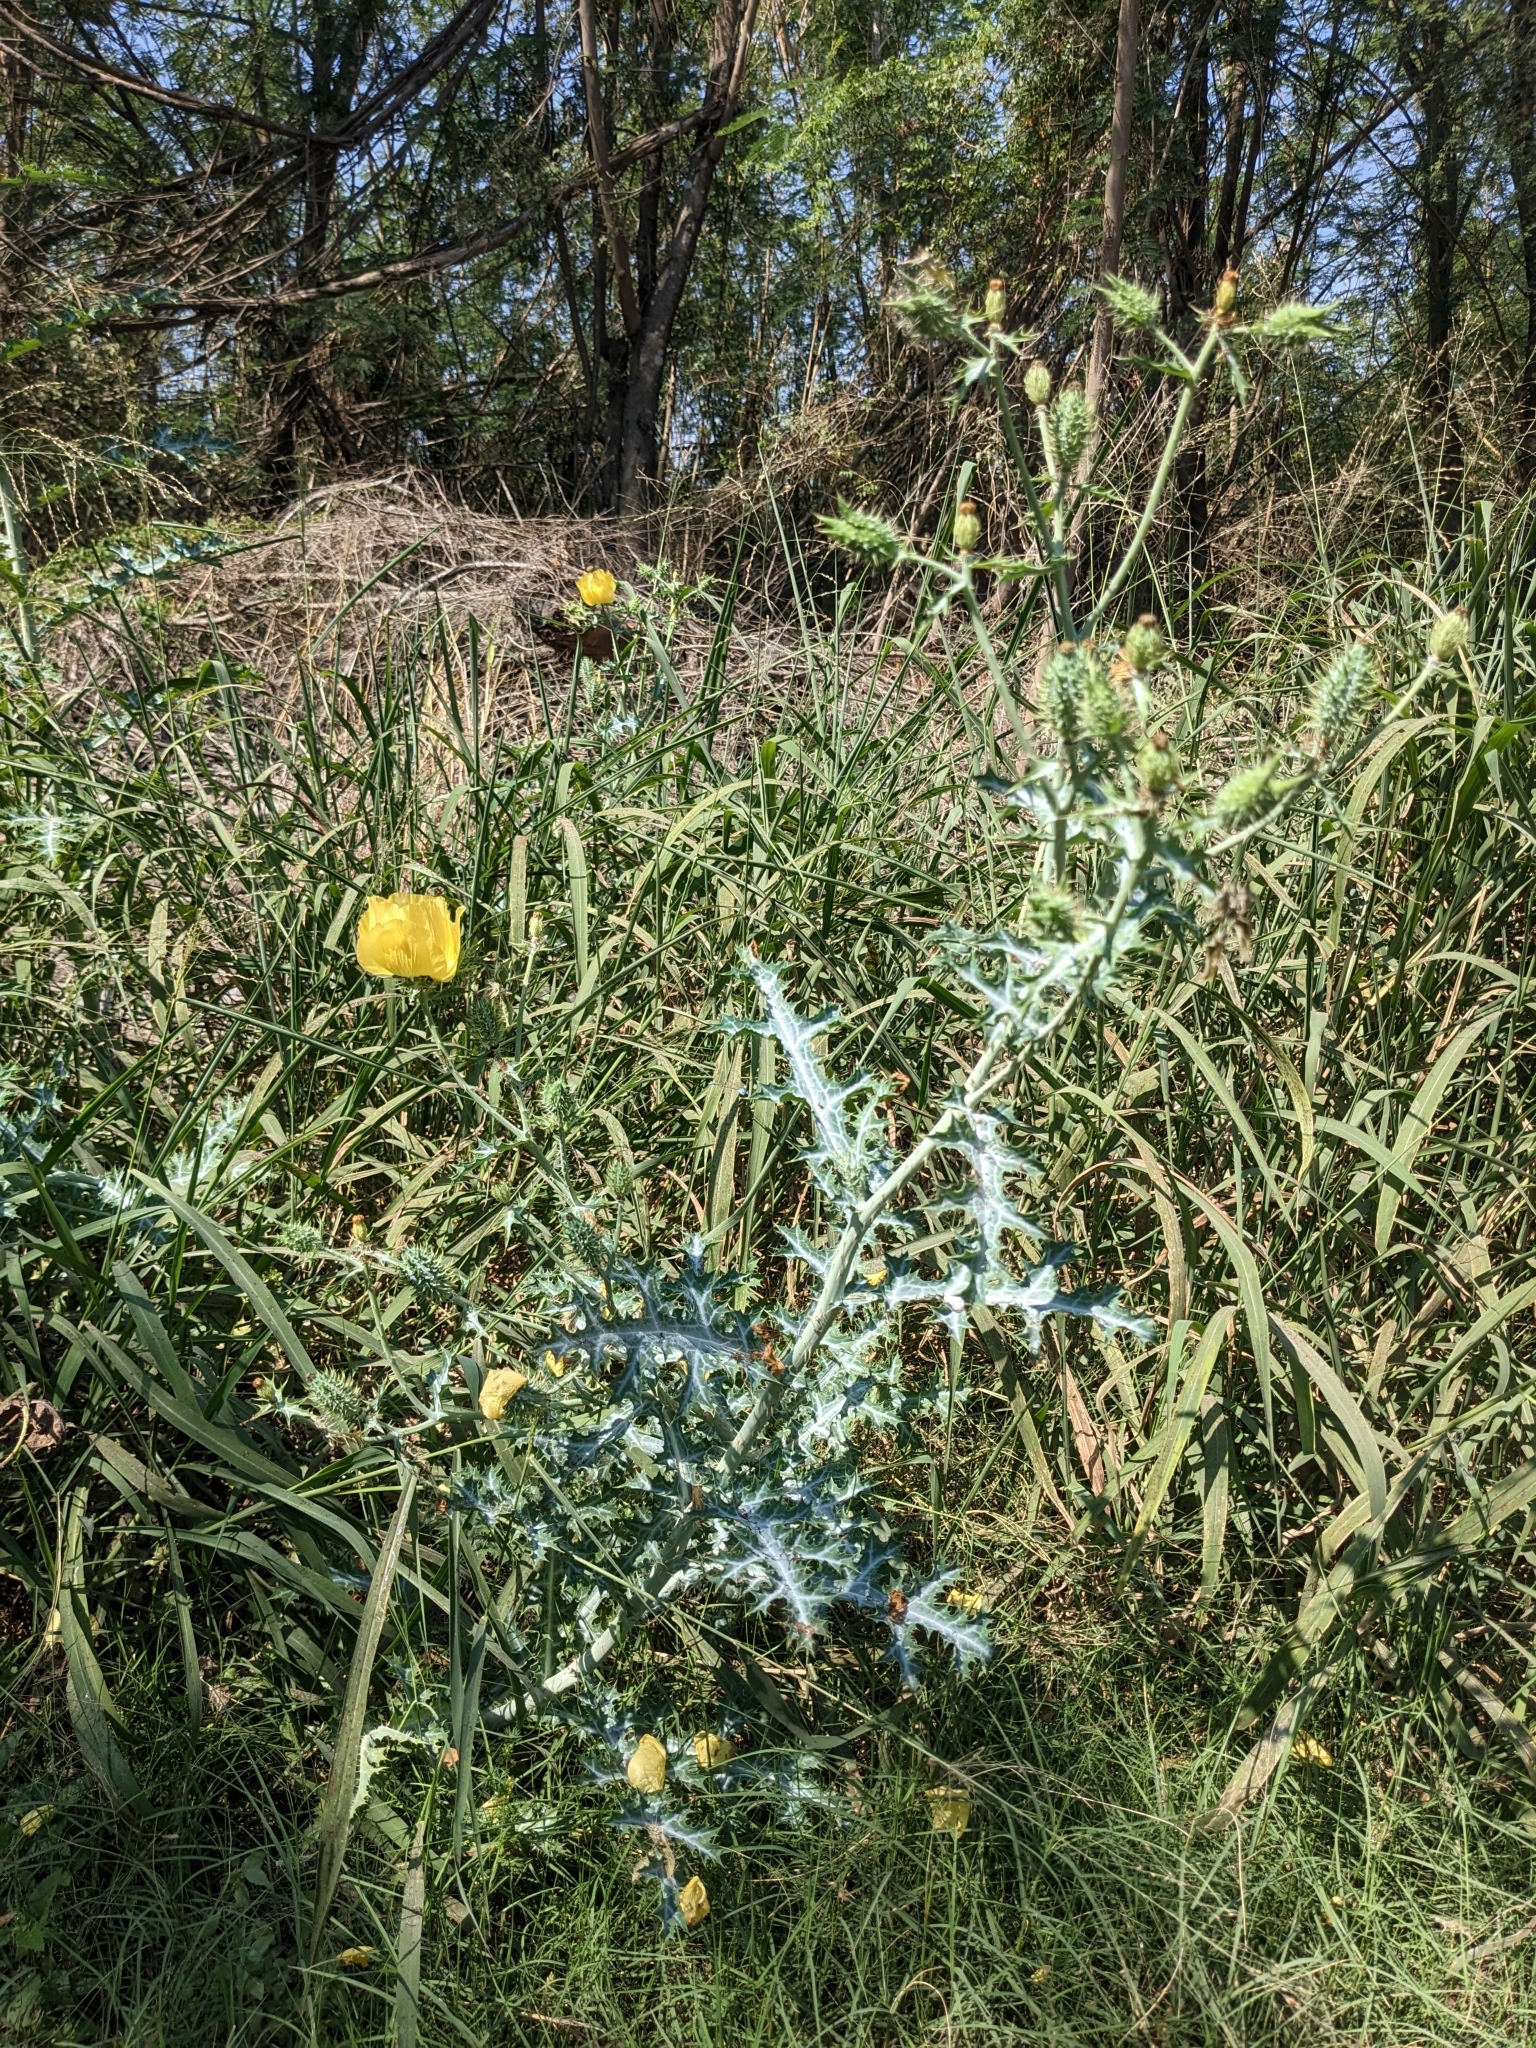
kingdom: Plantae
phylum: Tracheophyta
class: Magnoliopsida
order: Ranunculales
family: Papaveraceae
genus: Argemone
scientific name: Argemone aenea
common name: Golden prickly-poppy
